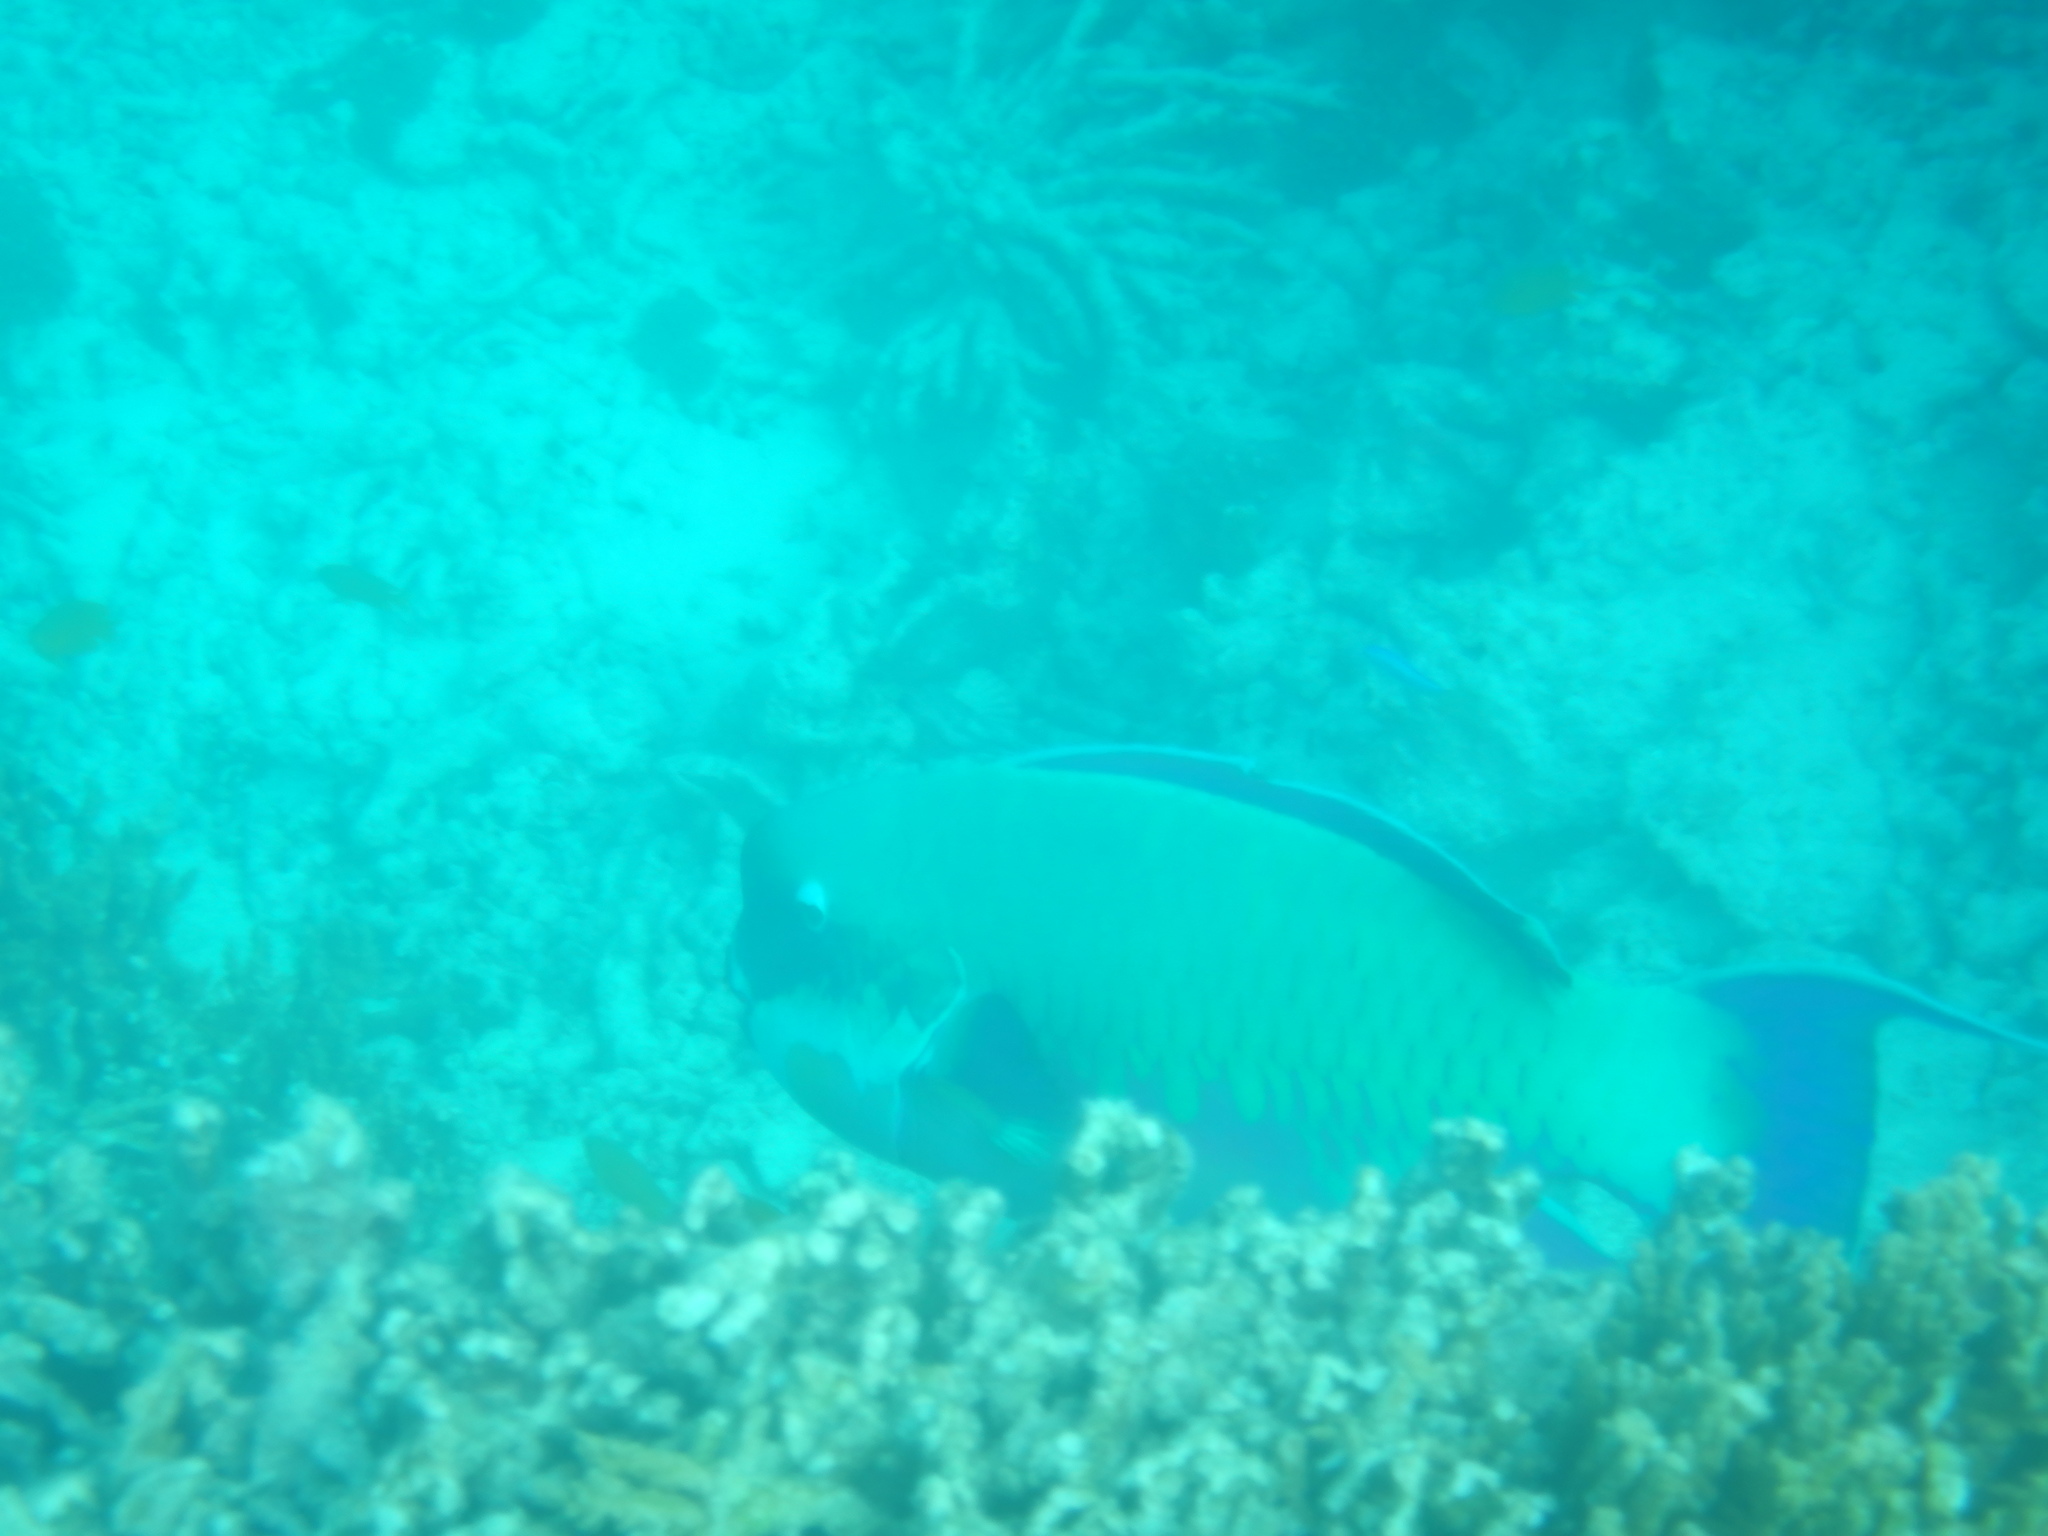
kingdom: Animalia
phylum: Chordata
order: Perciformes
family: Scaridae
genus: Chlorurus
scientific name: Chlorurus microrhinos
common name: Steephead parrotfish
